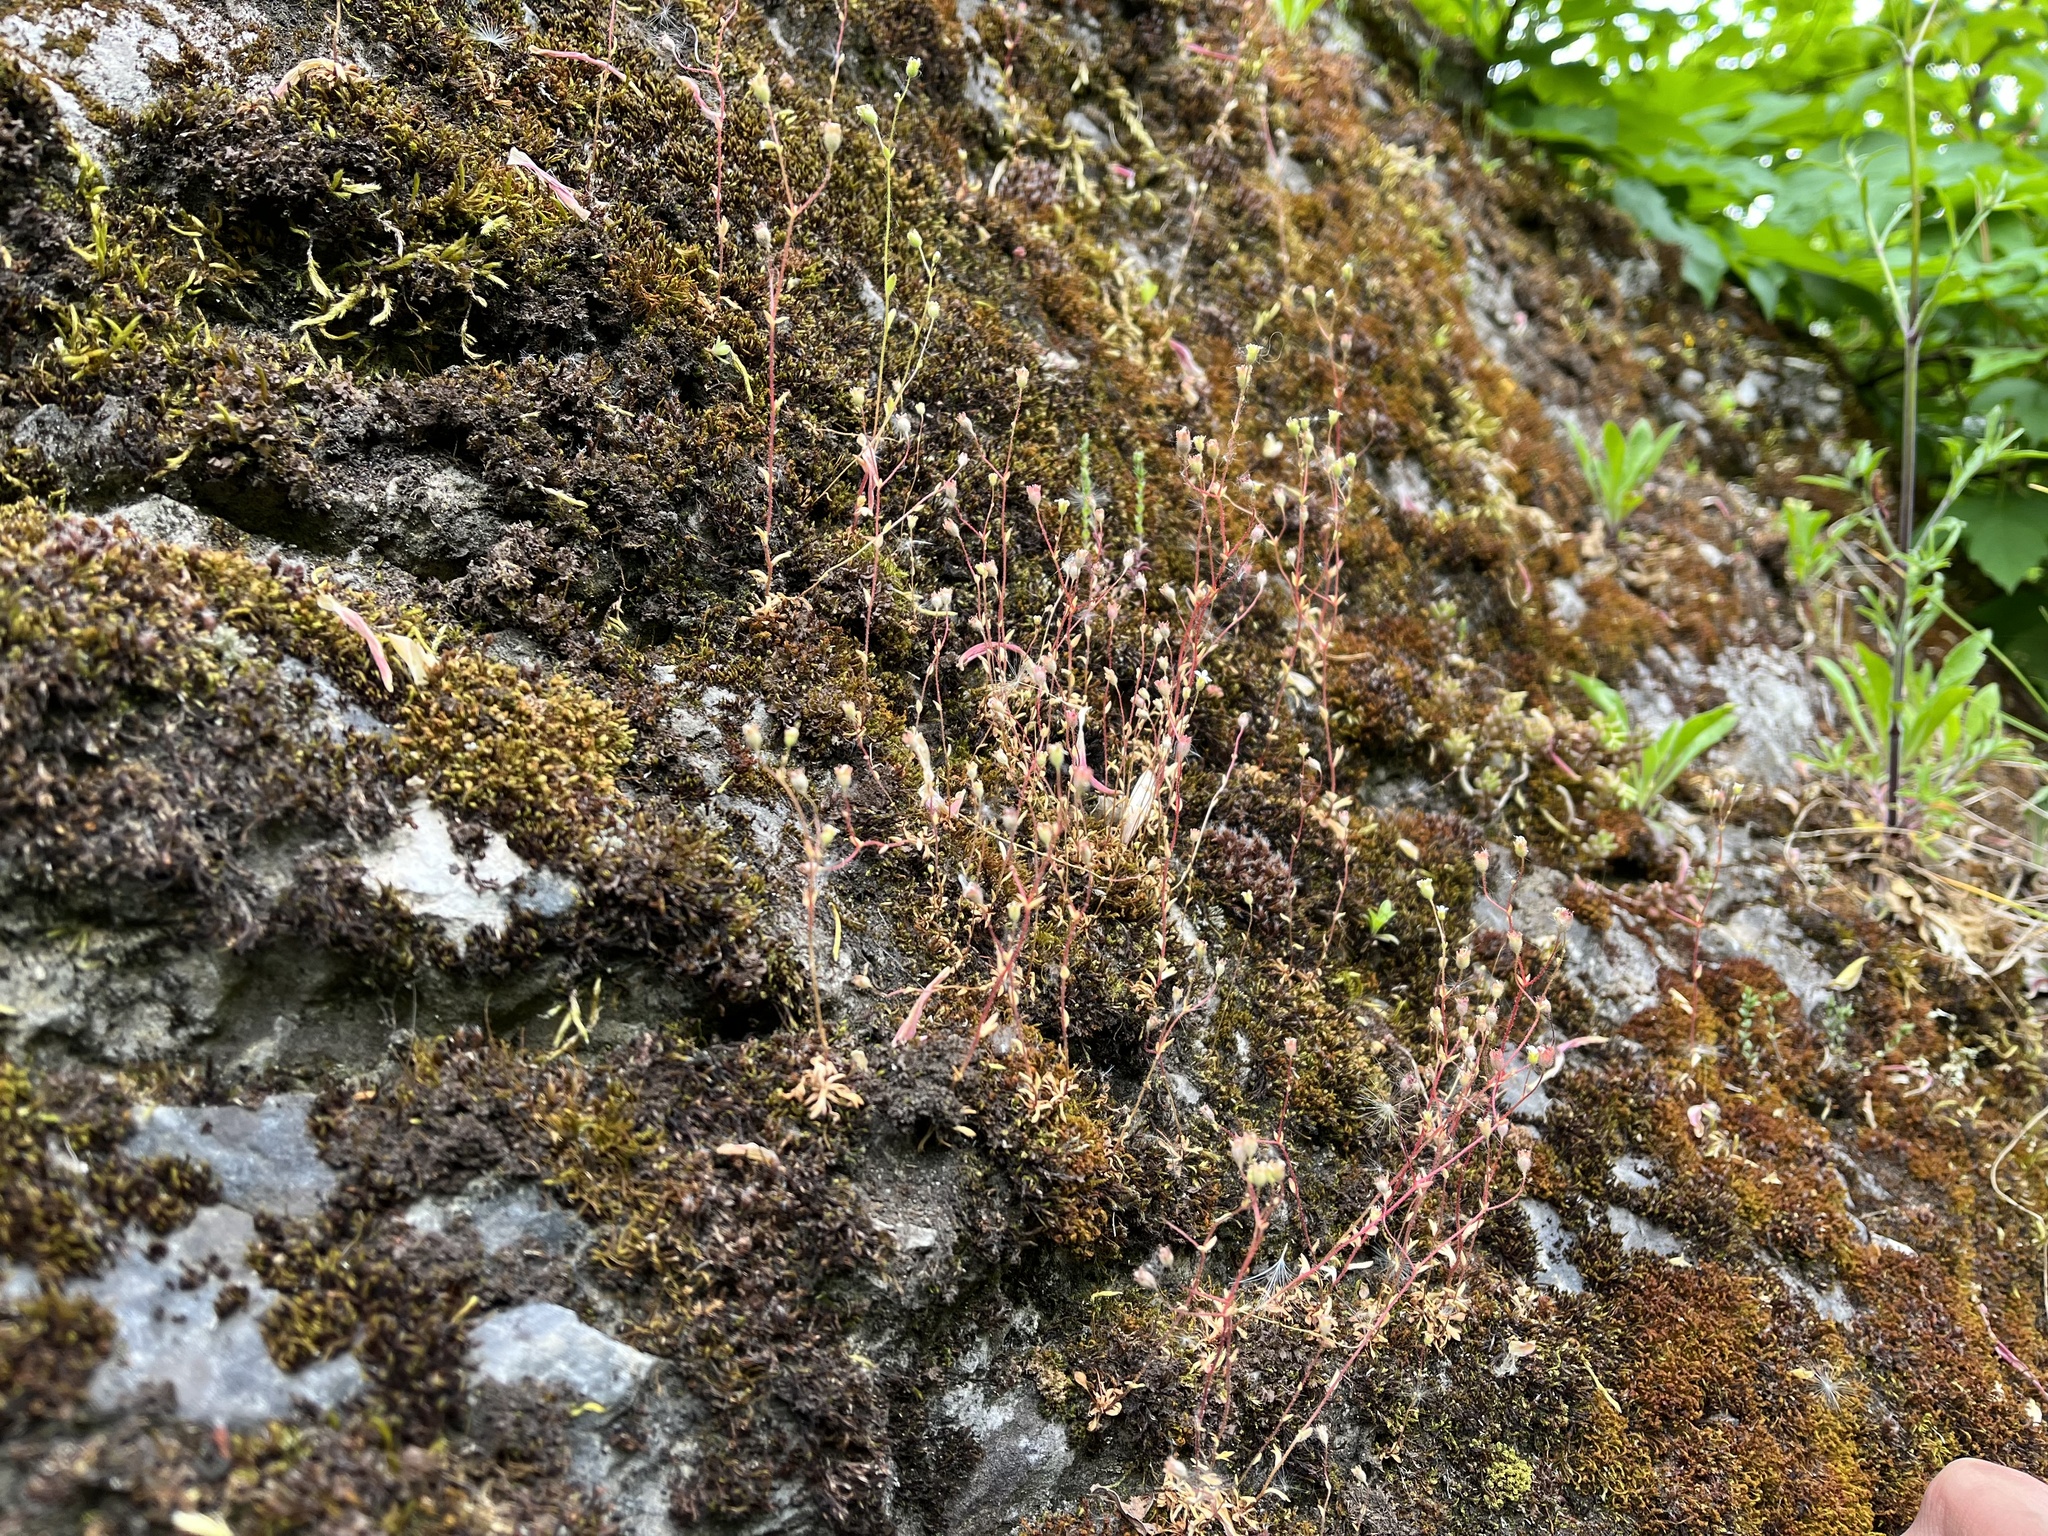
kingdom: Plantae
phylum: Tracheophyta
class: Magnoliopsida
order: Saxifragales
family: Saxifragaceae
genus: Saxifraga
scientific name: Saxifraga tridactylites
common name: Rue-leaved saxifrage
